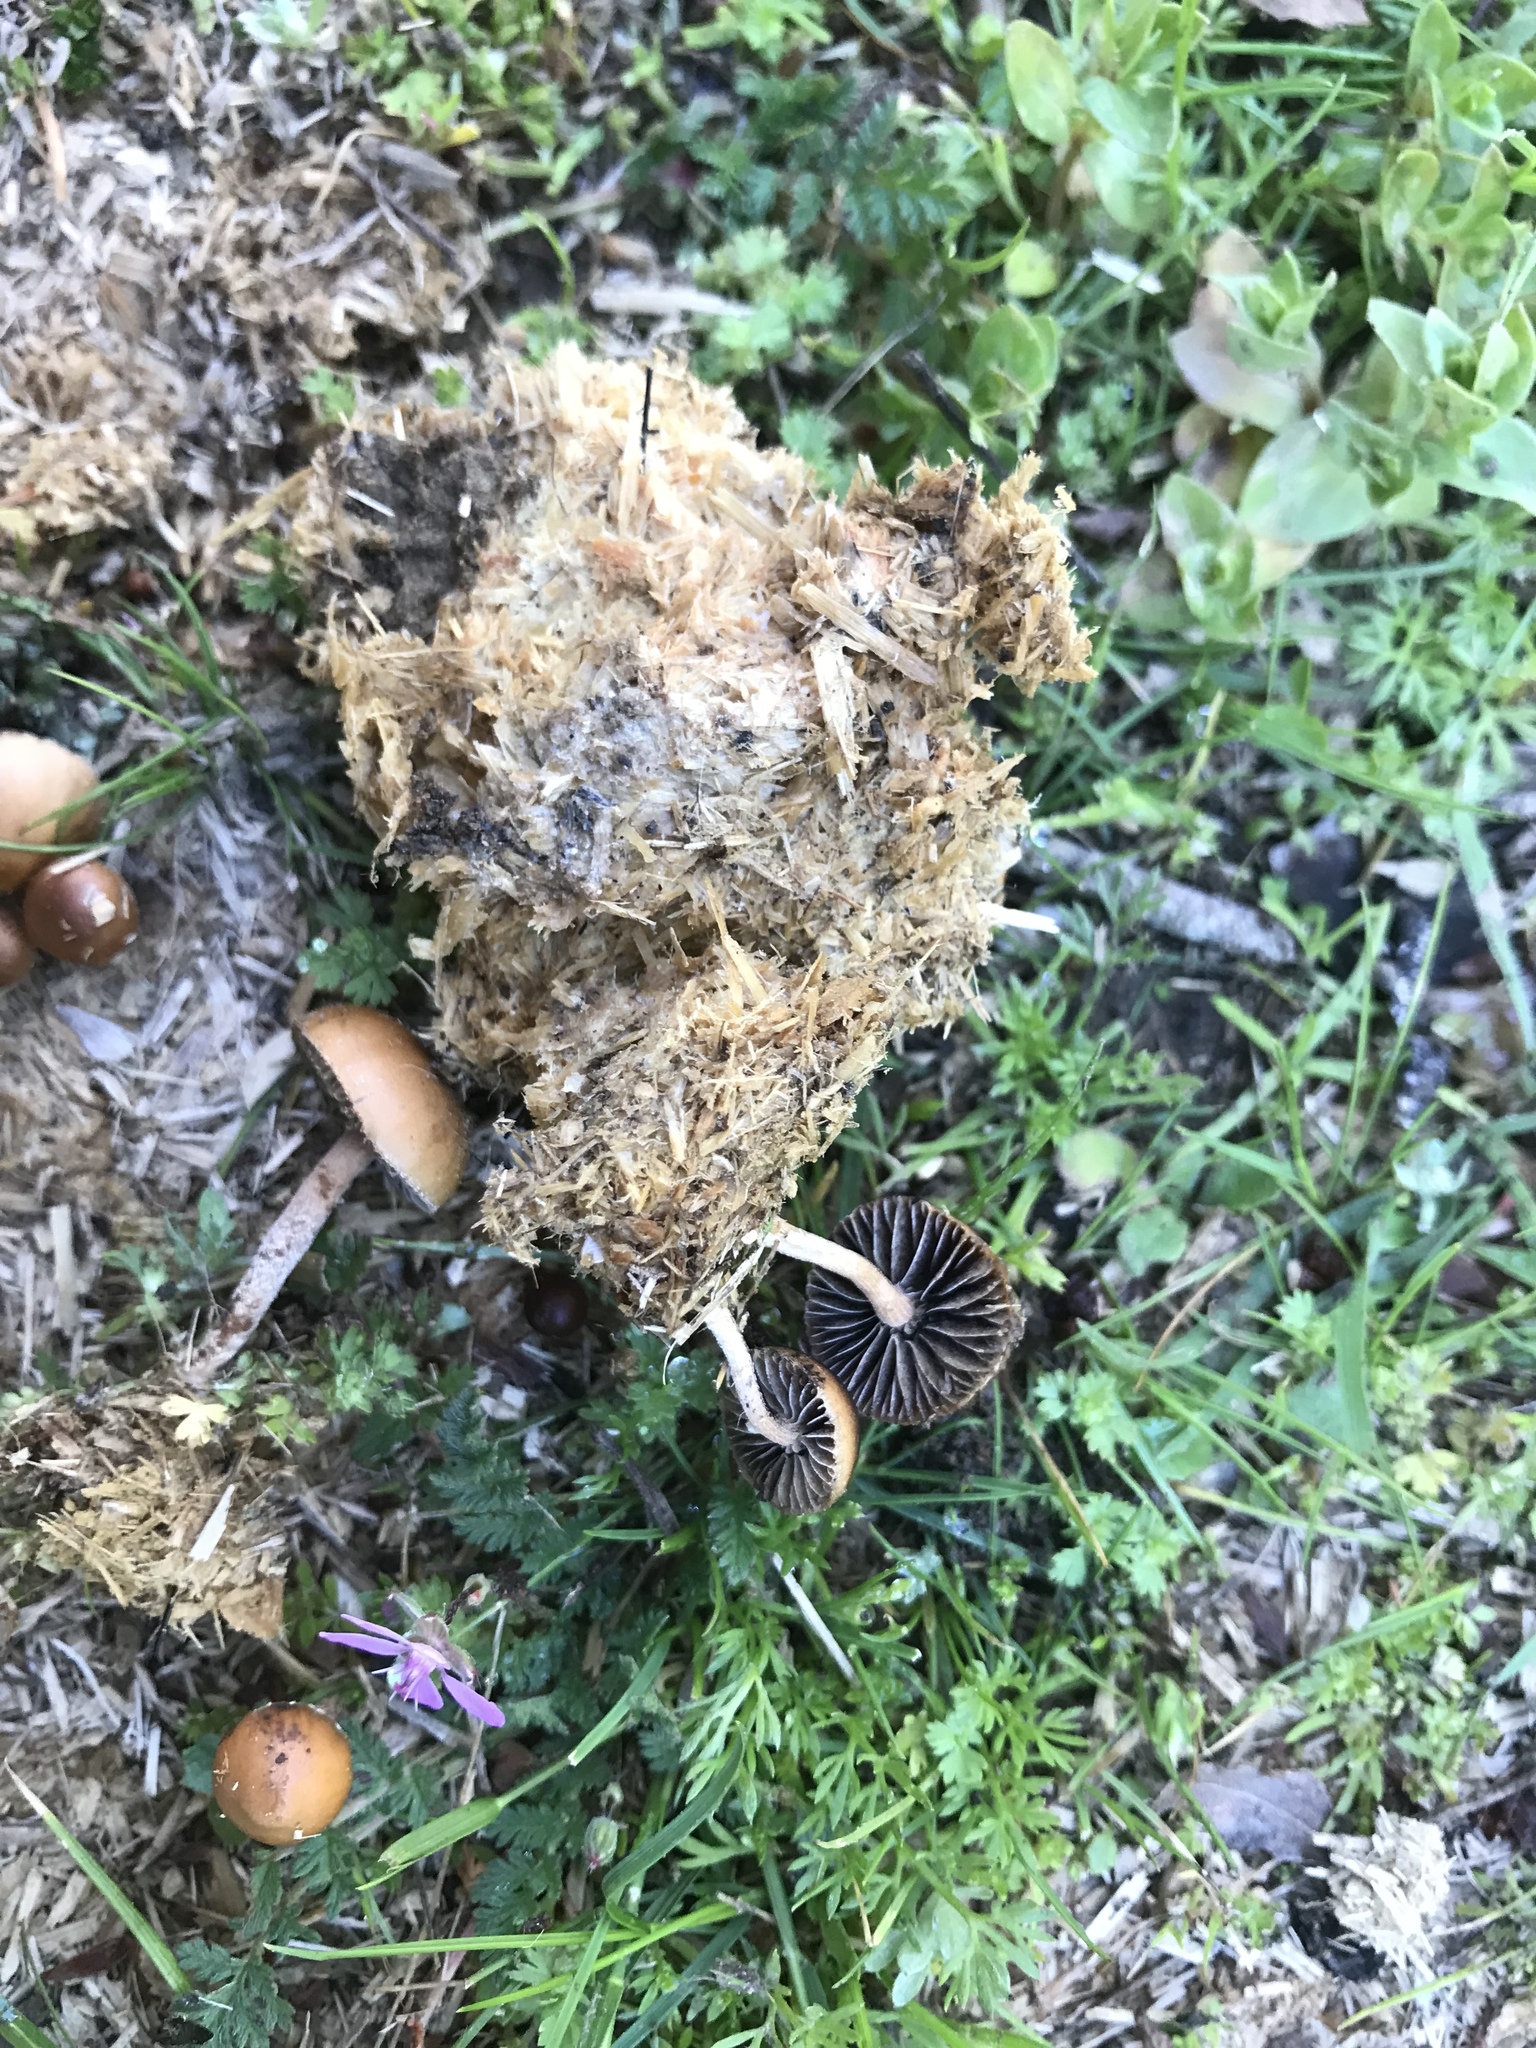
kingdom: Fungi
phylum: Basidiomycota
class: Agaricomycetes
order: Agaricales
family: Strophariaceae
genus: Deconica
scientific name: Deconica coprophila
